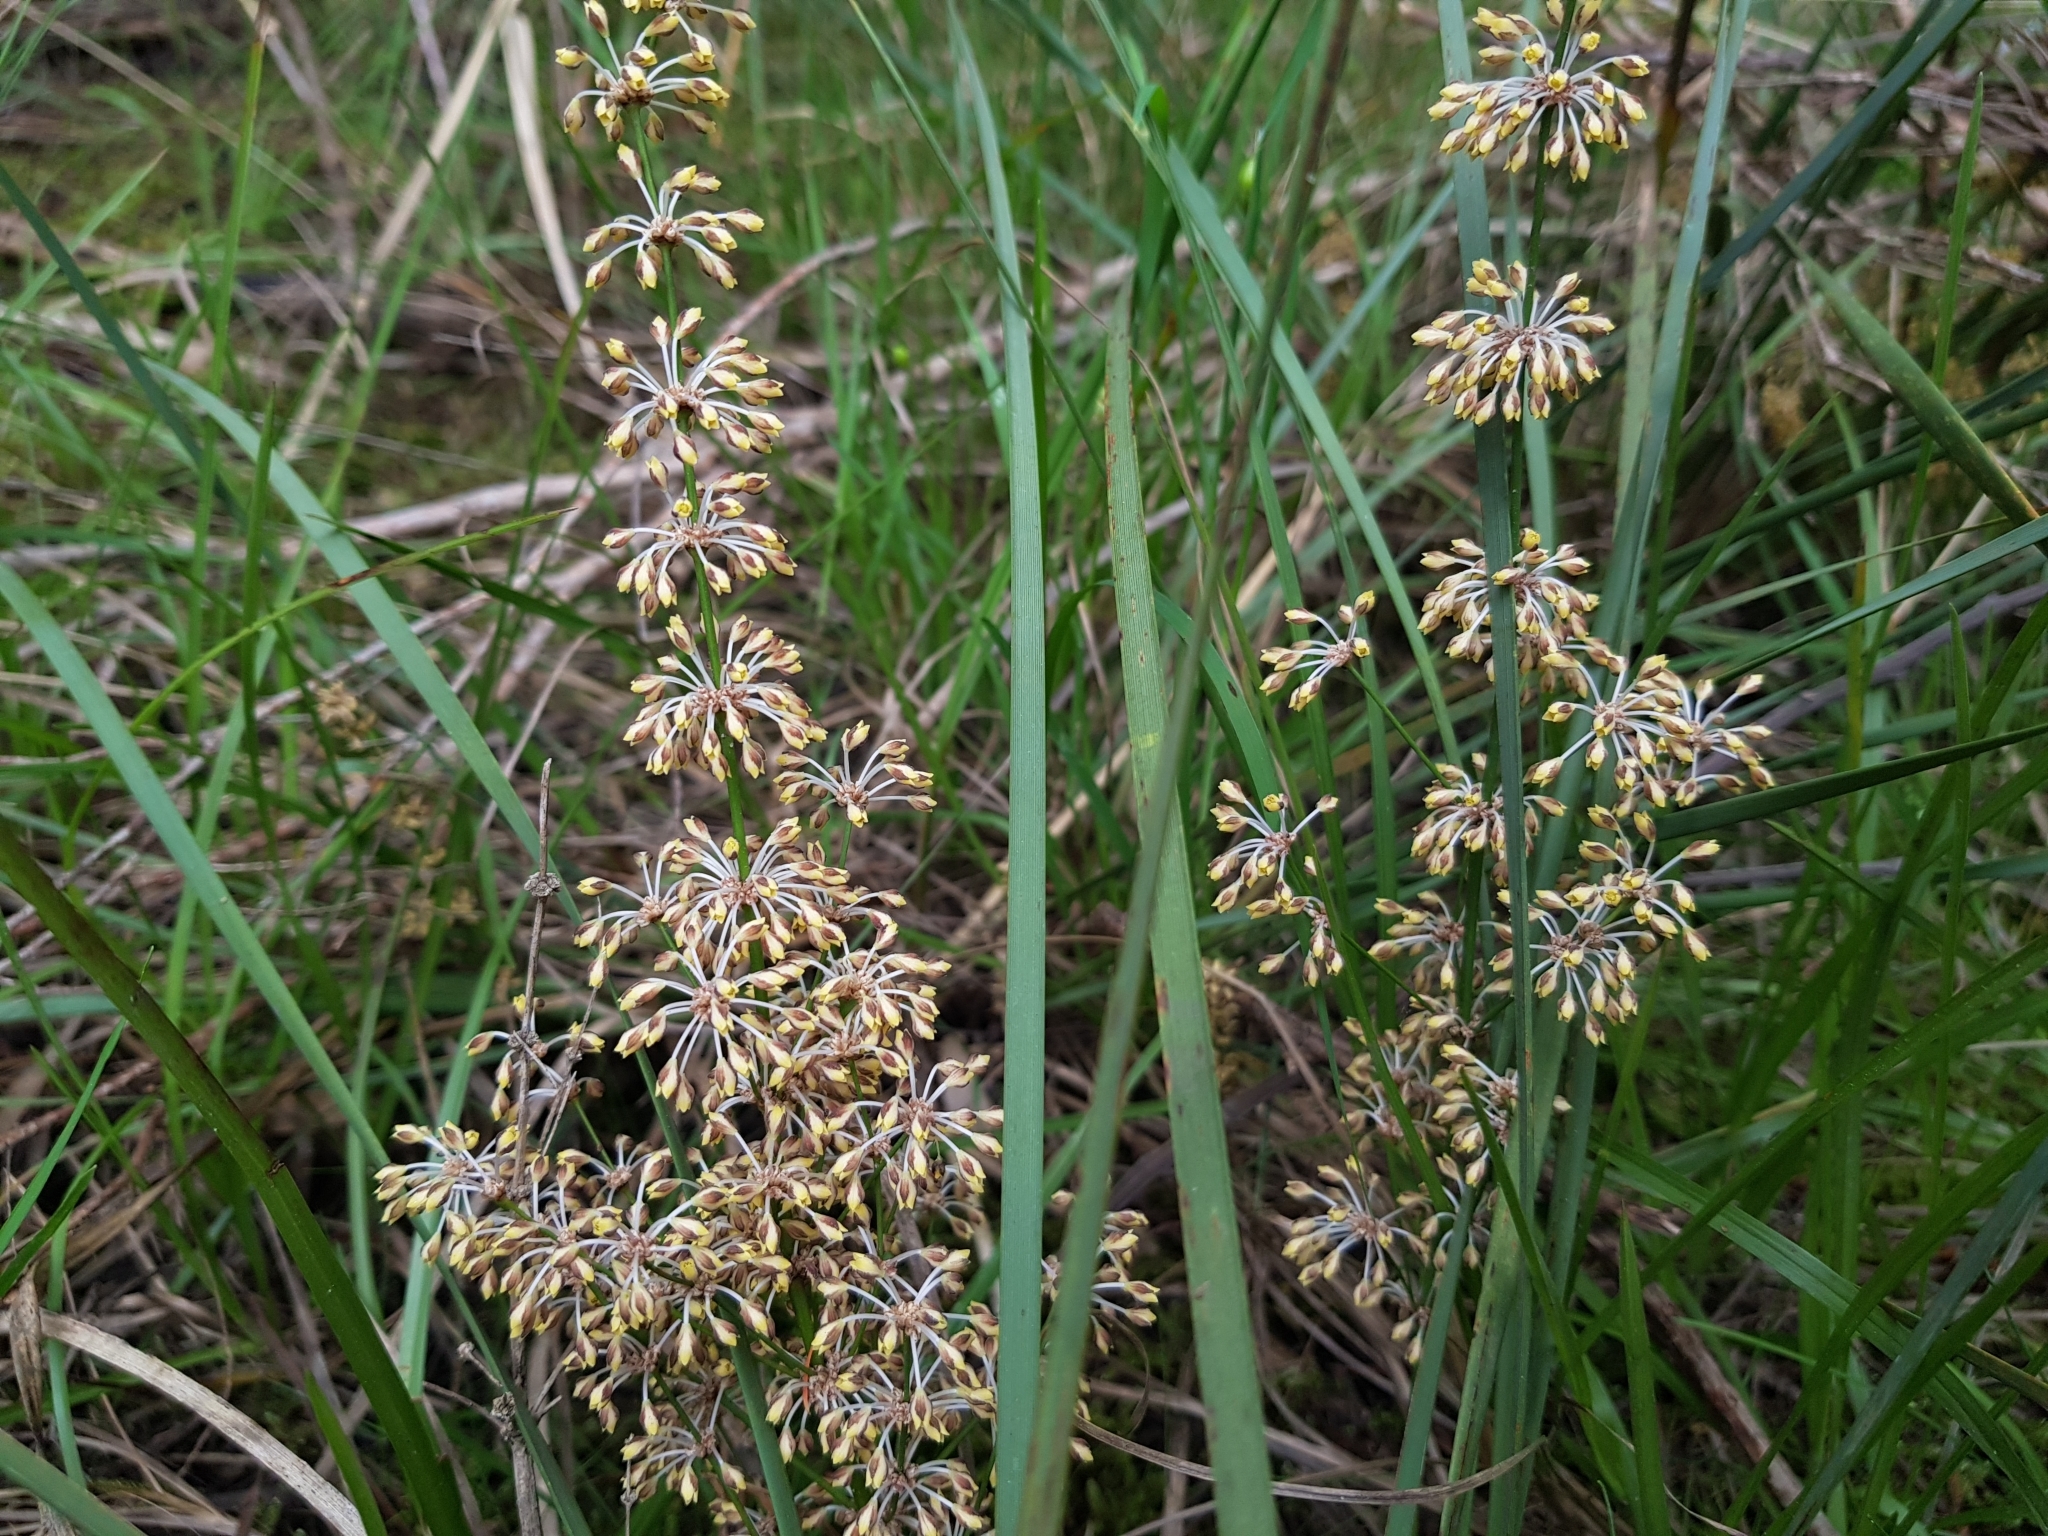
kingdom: Plantae
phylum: Tracheophyta
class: Liliopsida
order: Asparagales
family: Asparagaceae
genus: Lomandra
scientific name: Lomandra multiflora
